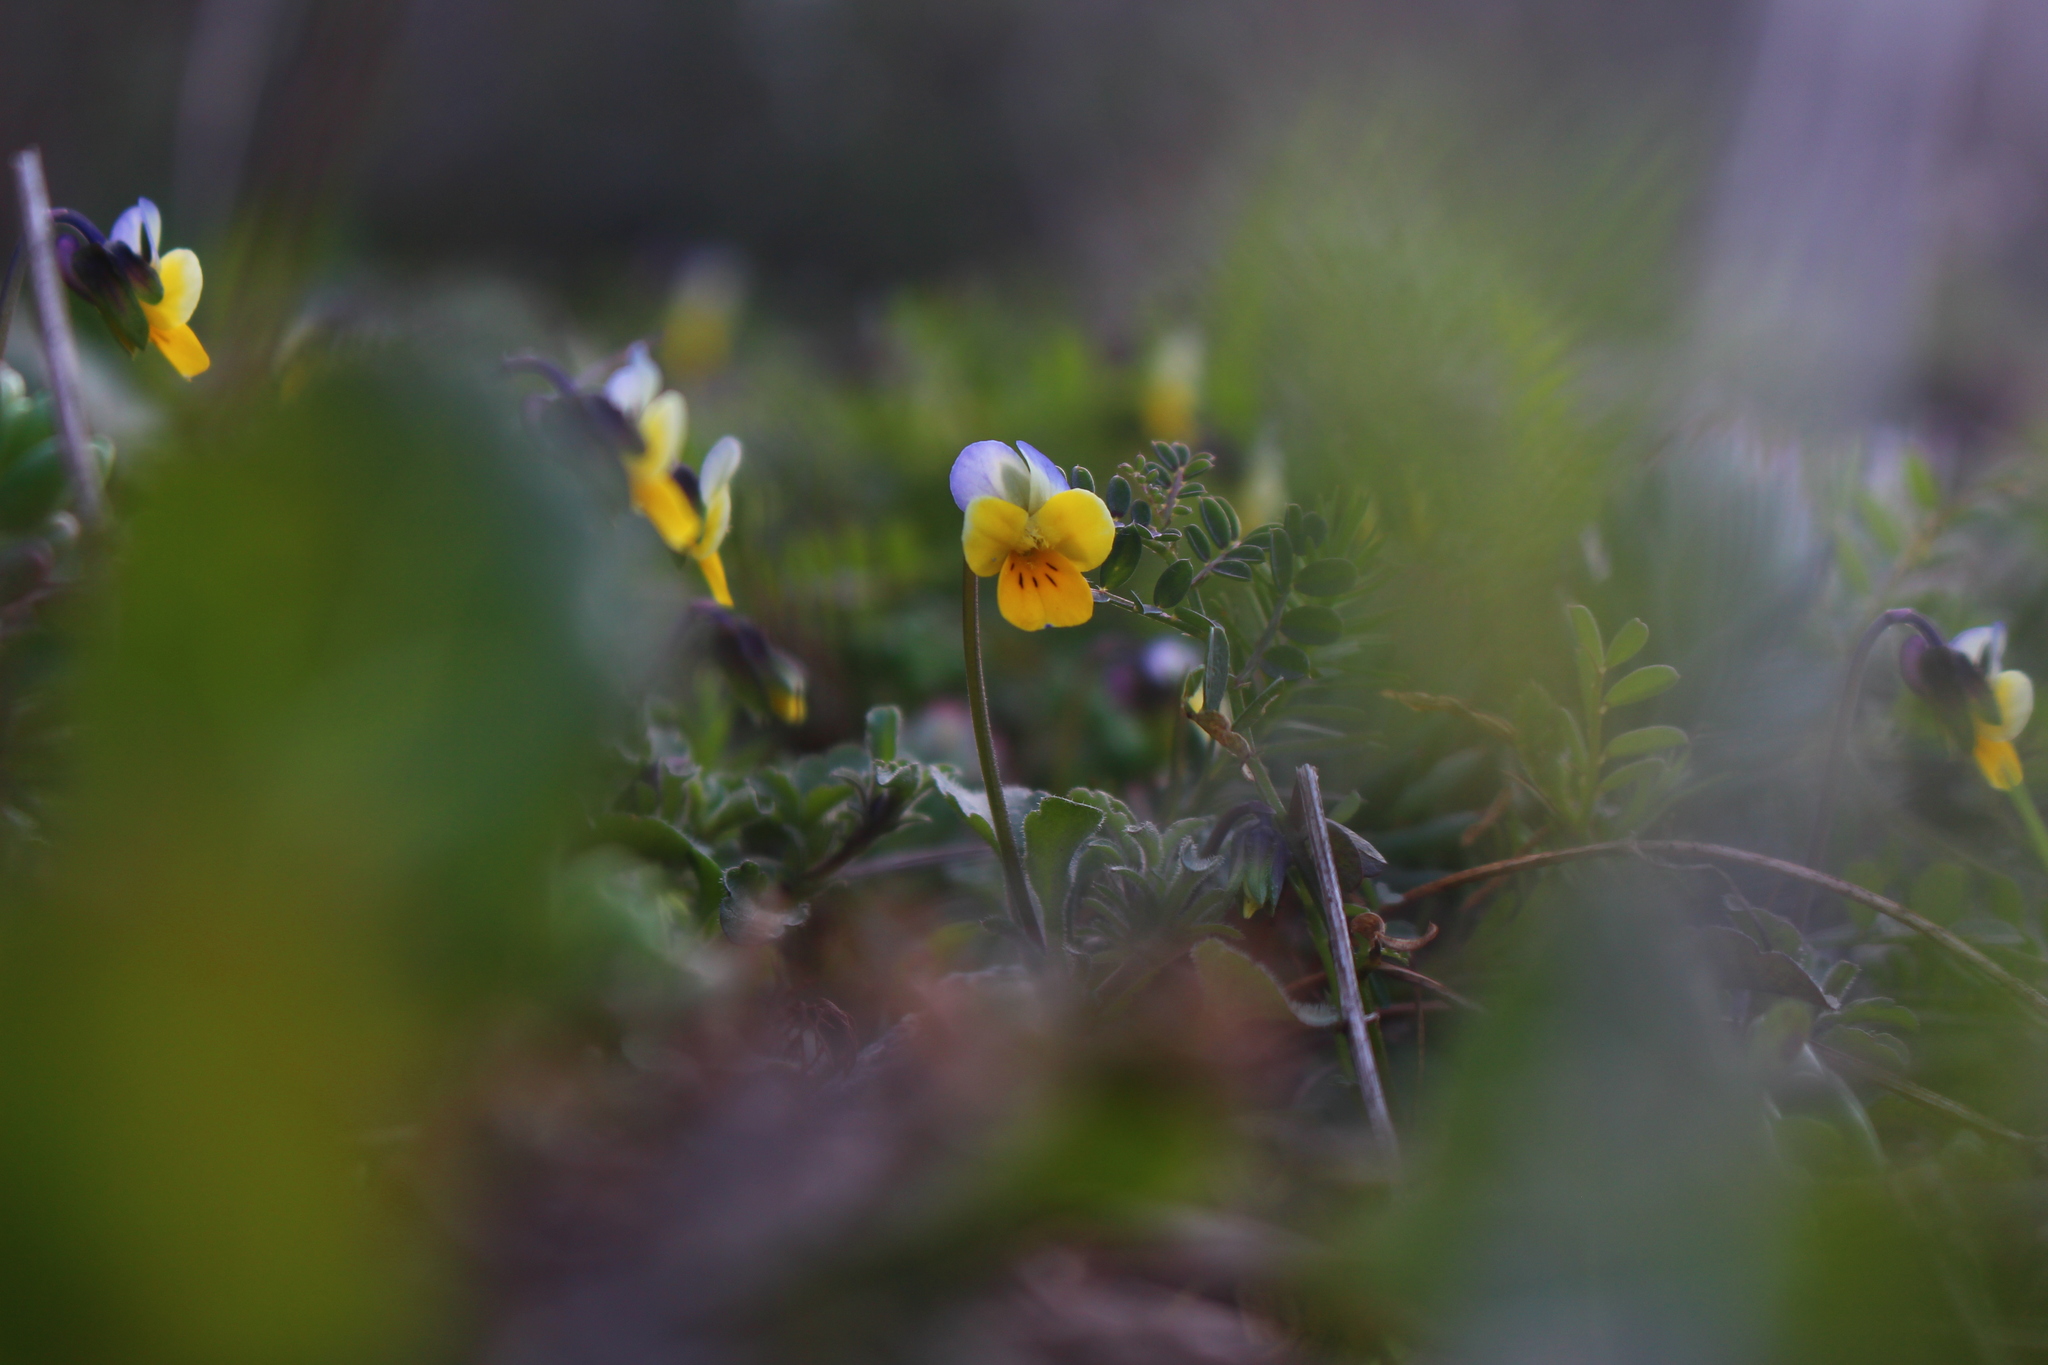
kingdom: Plantae
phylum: Tracheophyta
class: Magnoliopsida
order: Malpighiales
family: Violaceae
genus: Viola
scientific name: Viola tricolor
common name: Pansy
